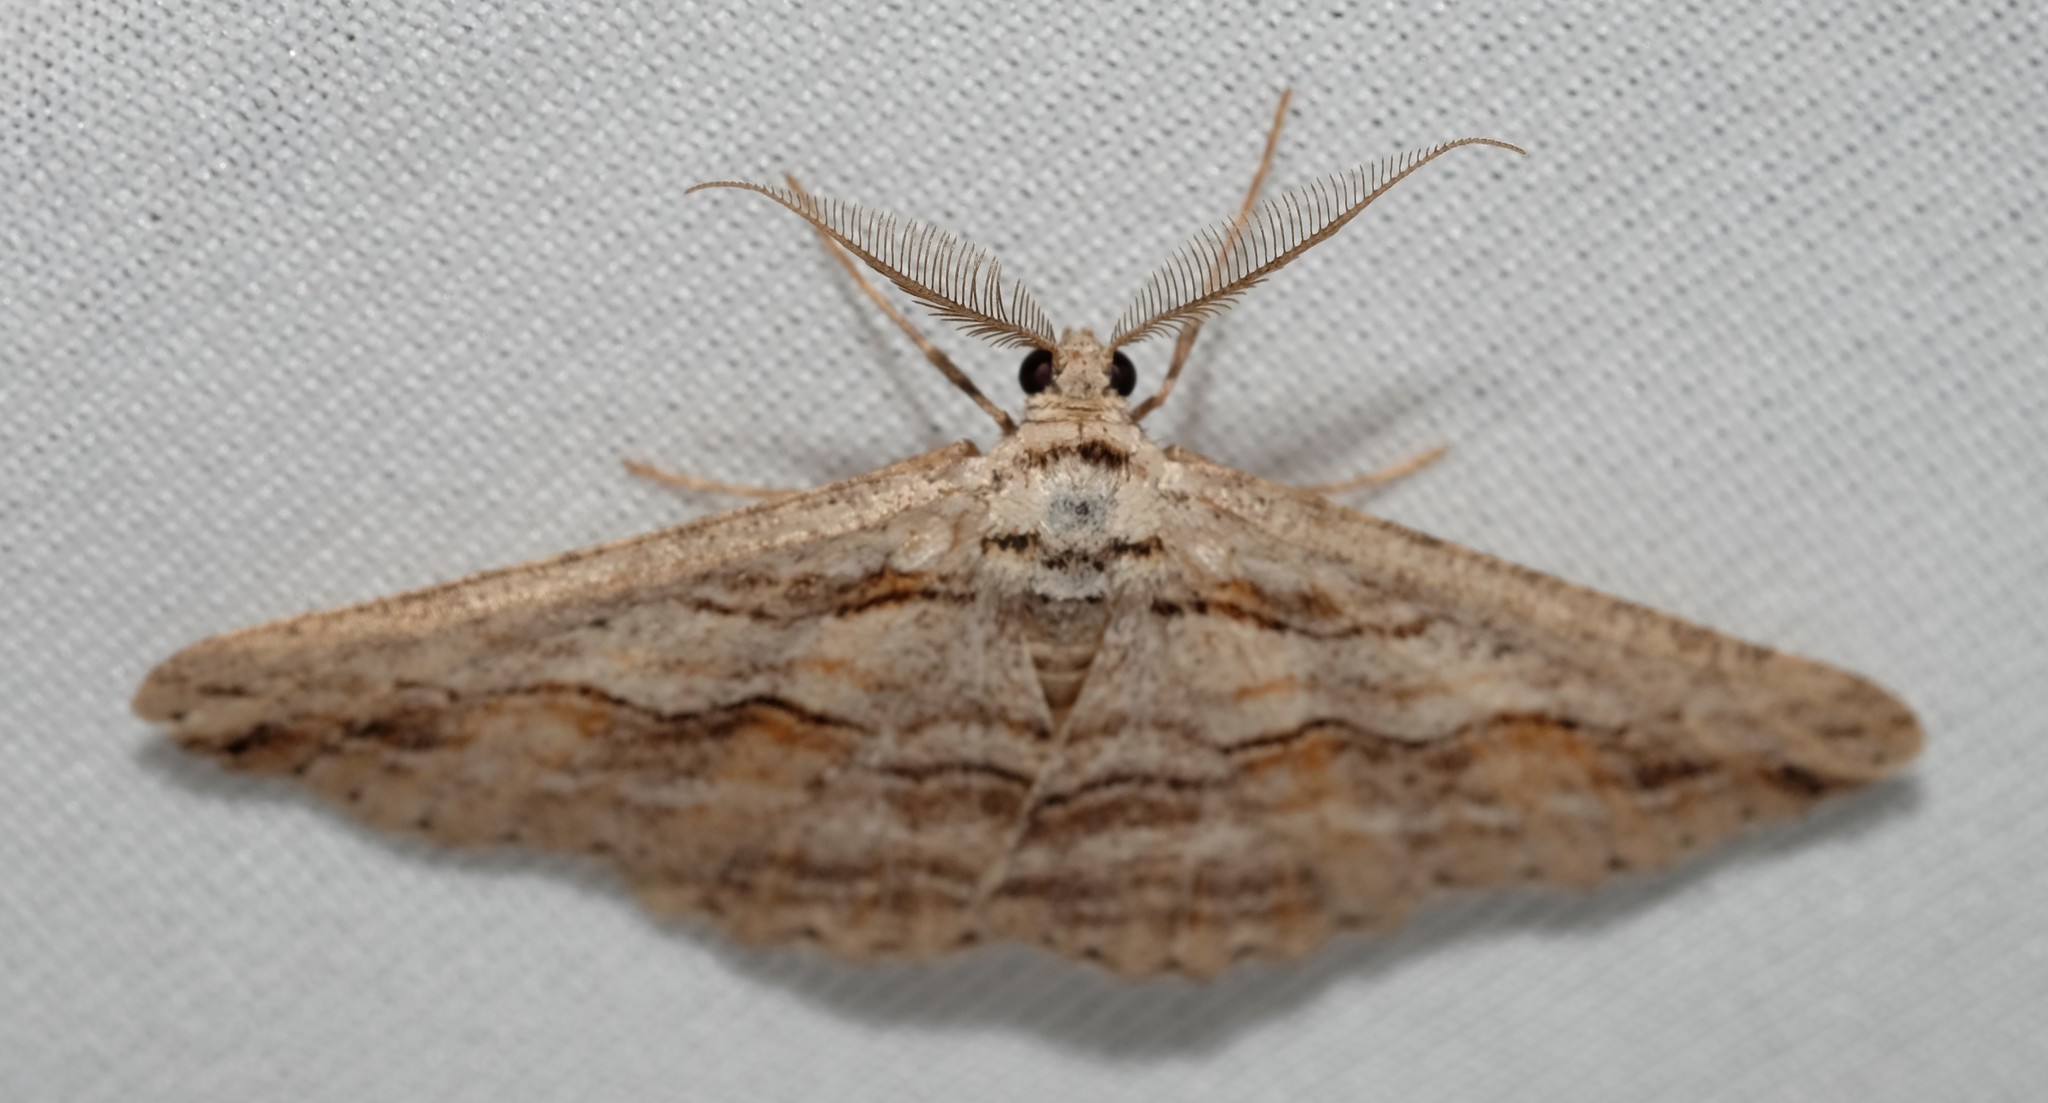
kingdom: Animalia
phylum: Arthropoda
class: Insecta
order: Lepidoptera
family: Geometridae
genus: Syneora
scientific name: Syneora mundifera
